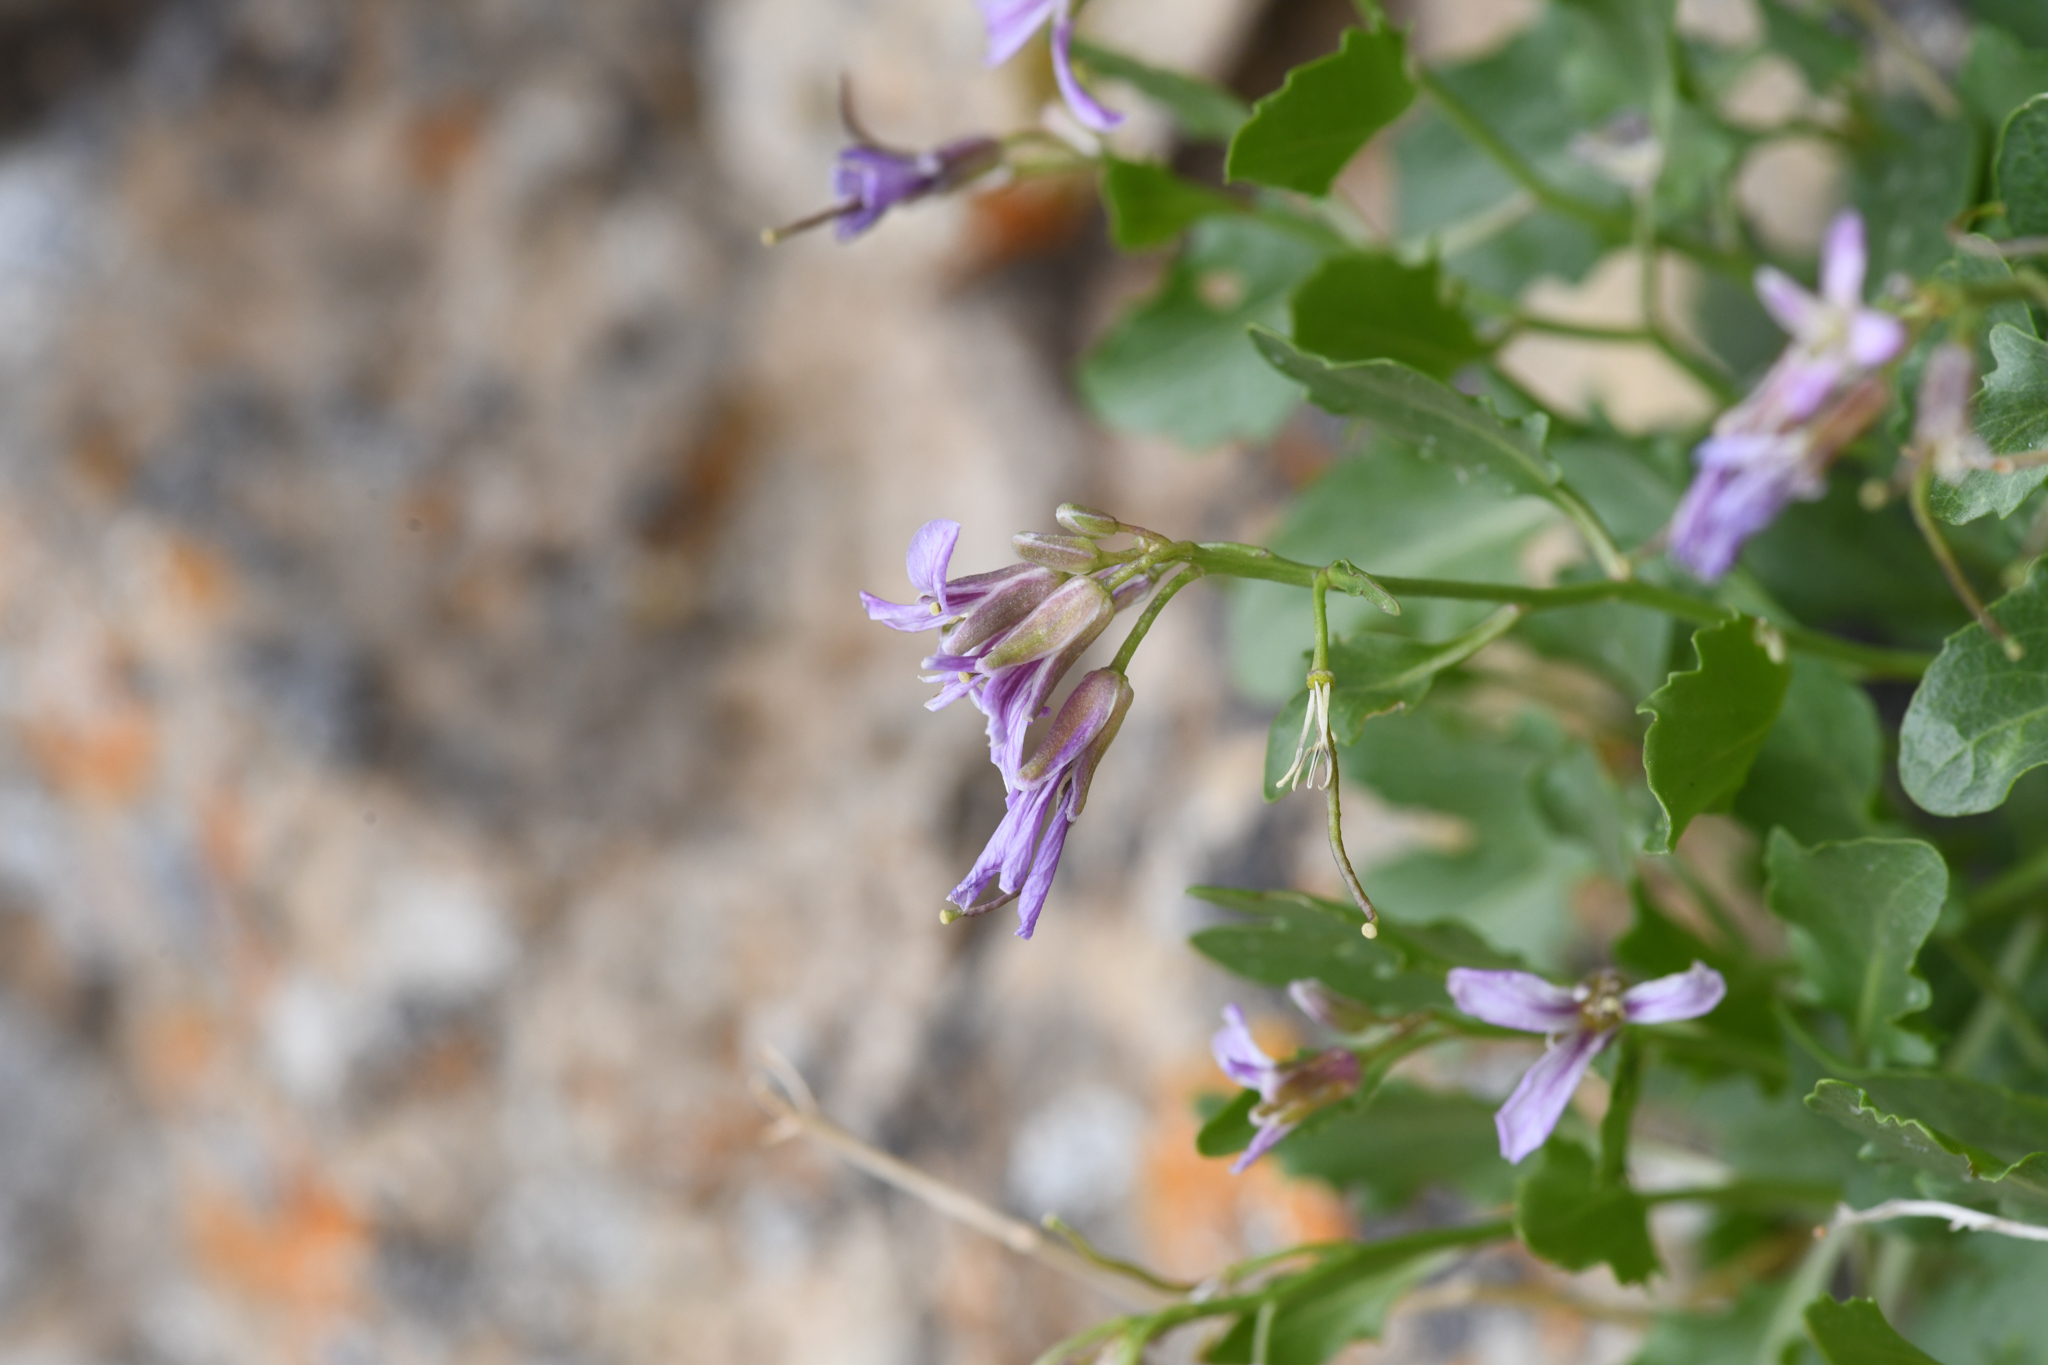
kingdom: Plantae
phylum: Tracheophyta
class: Magnoliopsida
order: Brassicales
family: Brassicaceae
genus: Hesperidanthus
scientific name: Hesperidanthus jaegeri
